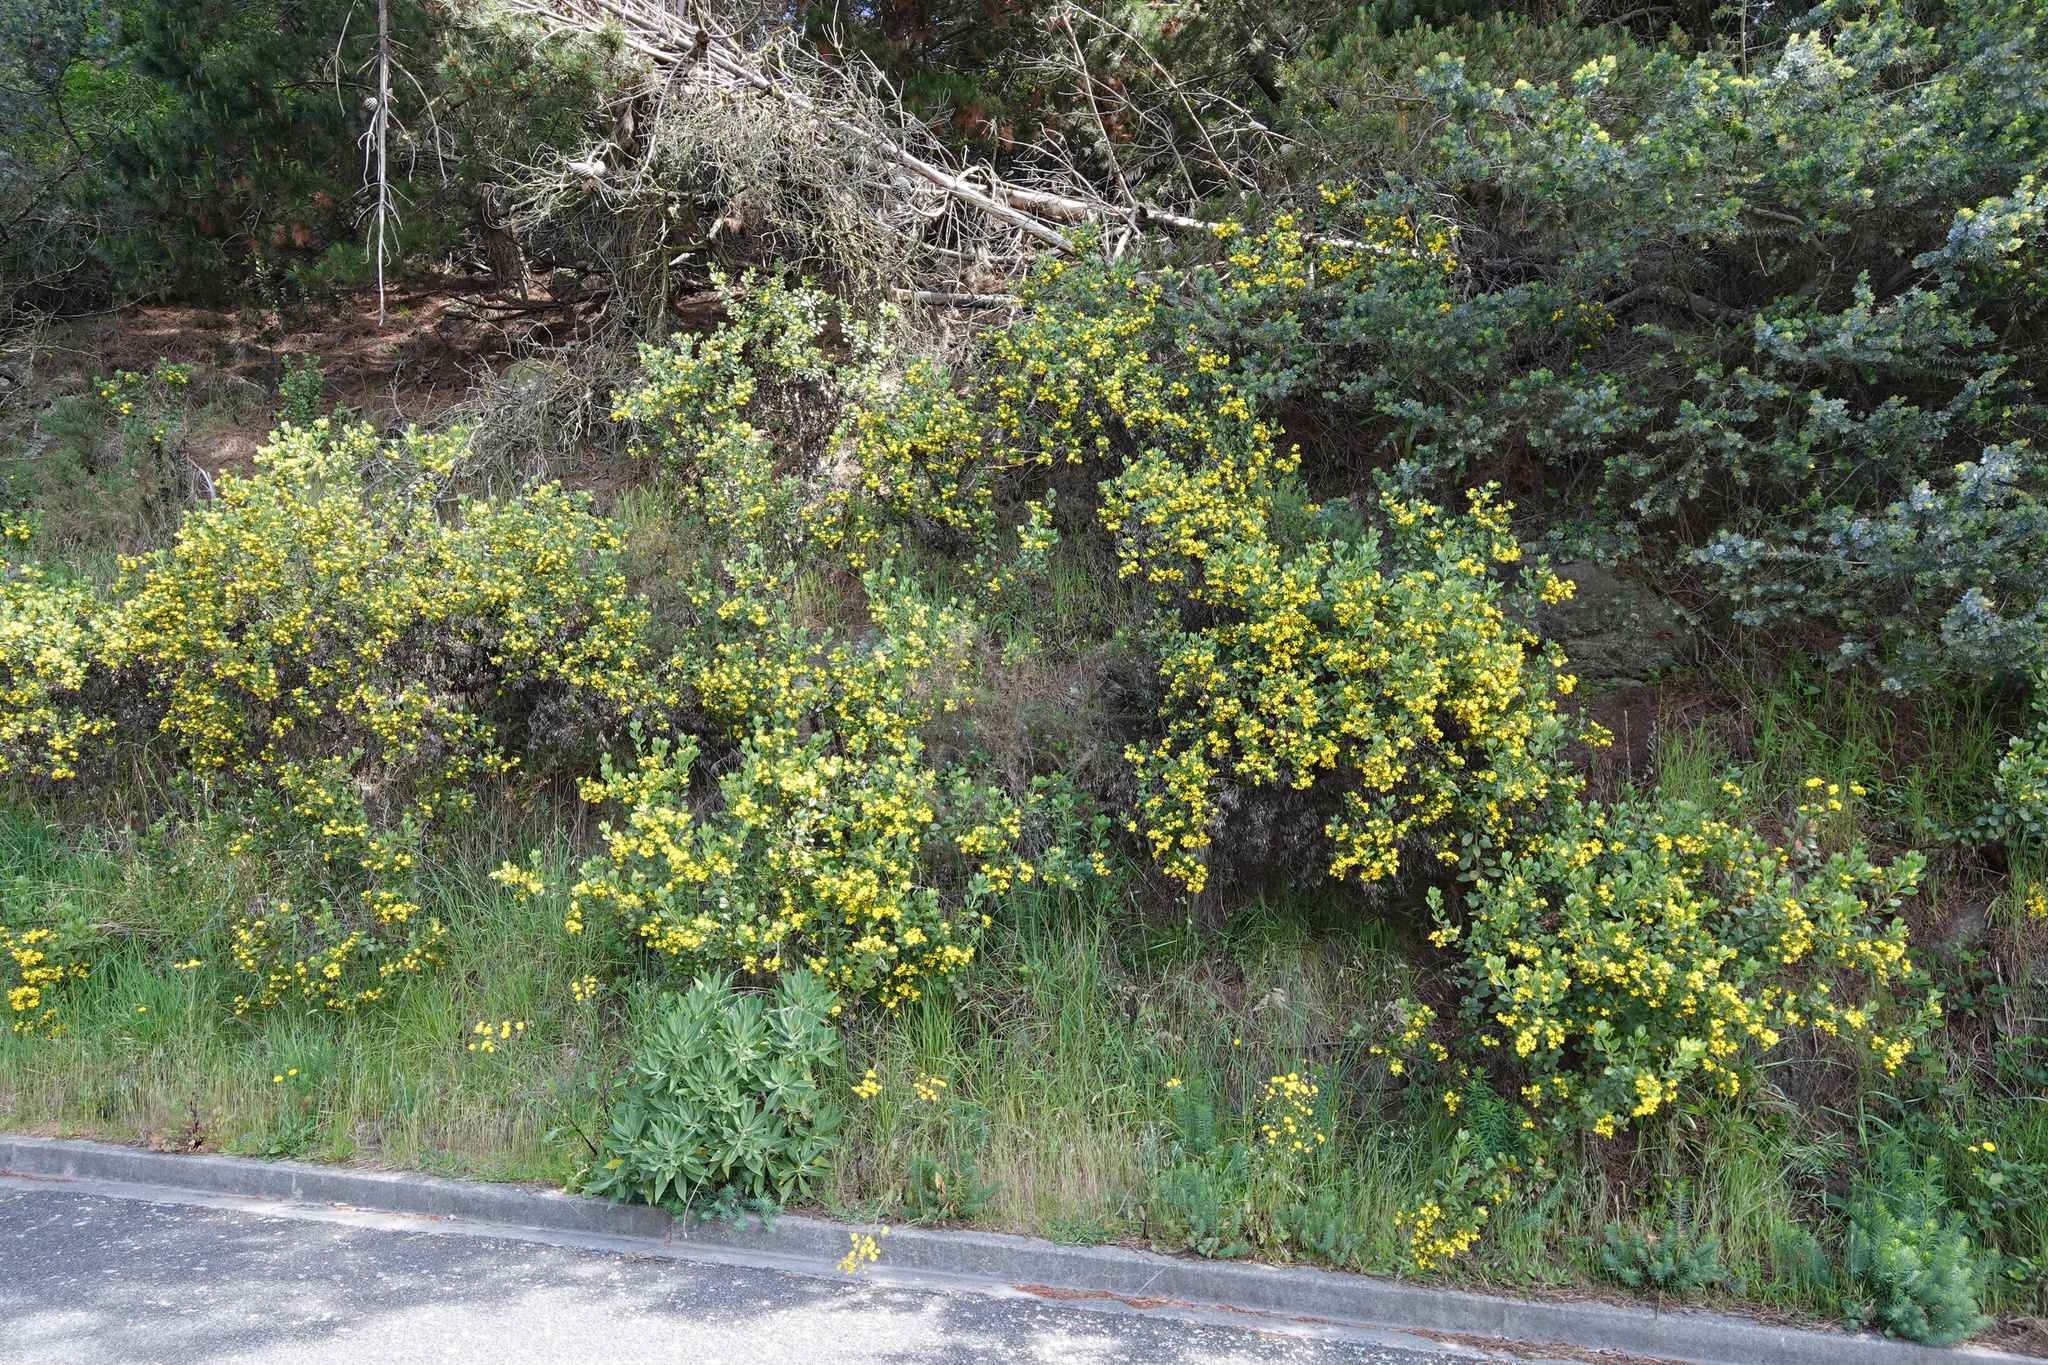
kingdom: Plantae
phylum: Tracheophyta
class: Magnoliopsida
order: Asterales
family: Asteraceae
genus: Osteospermum
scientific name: Osteospermum moniliferum
